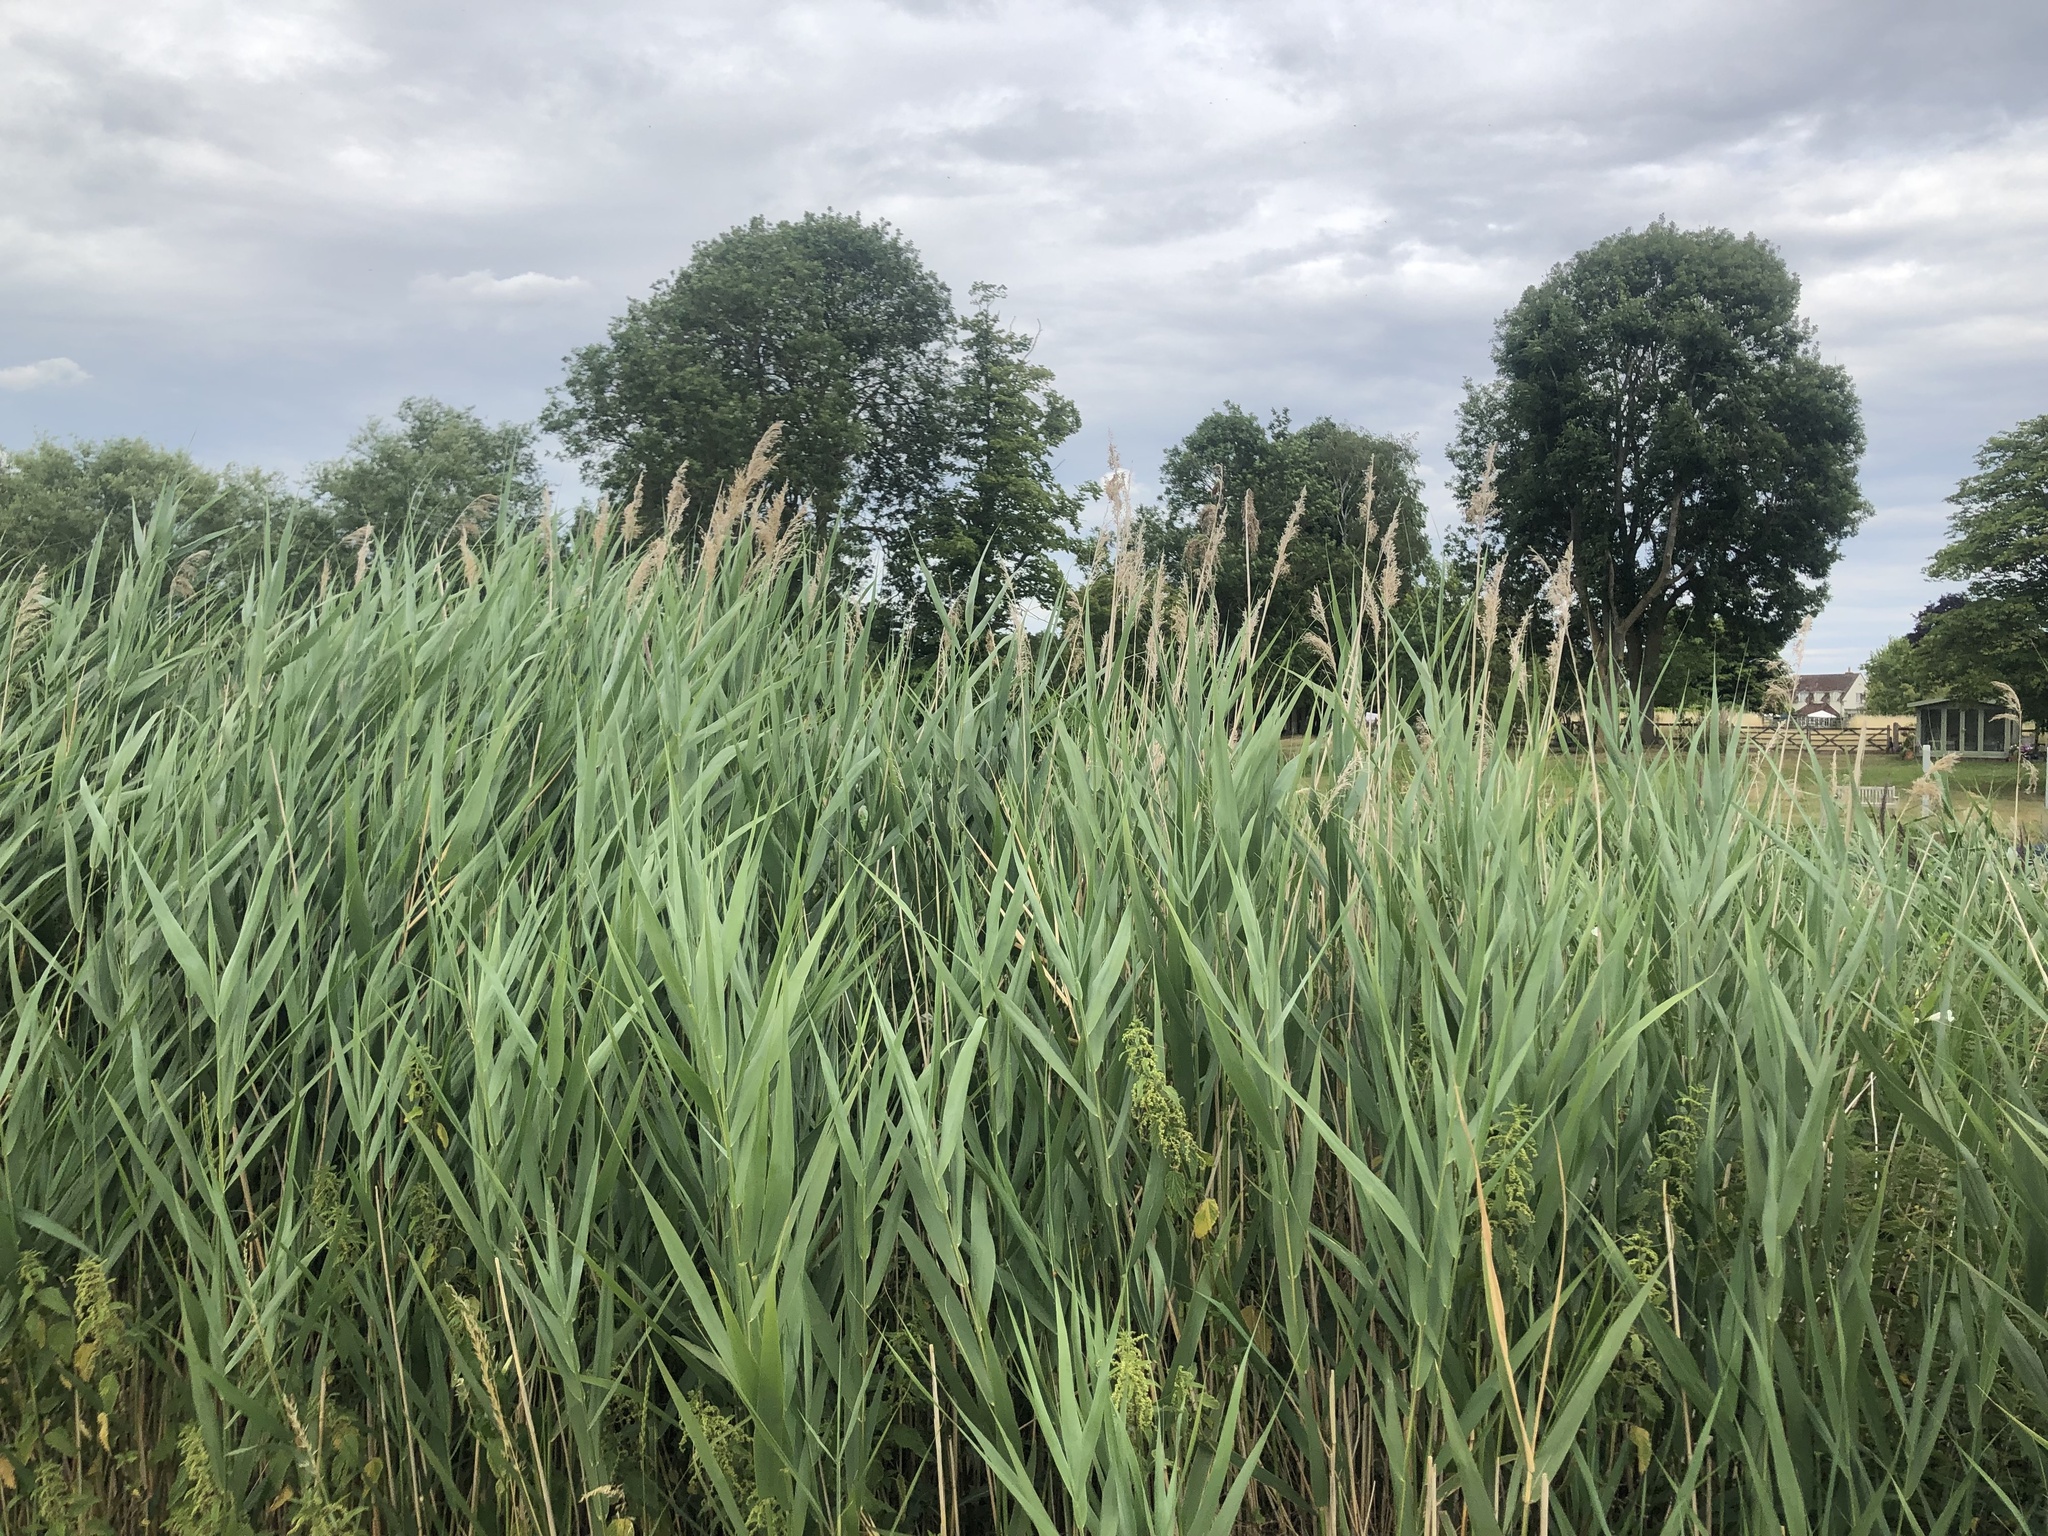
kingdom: Plantae
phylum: Tracheophyta
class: Liliopsida
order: Poales
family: Poaceae
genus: Phragmites
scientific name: Phragmites australis
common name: Common reed
